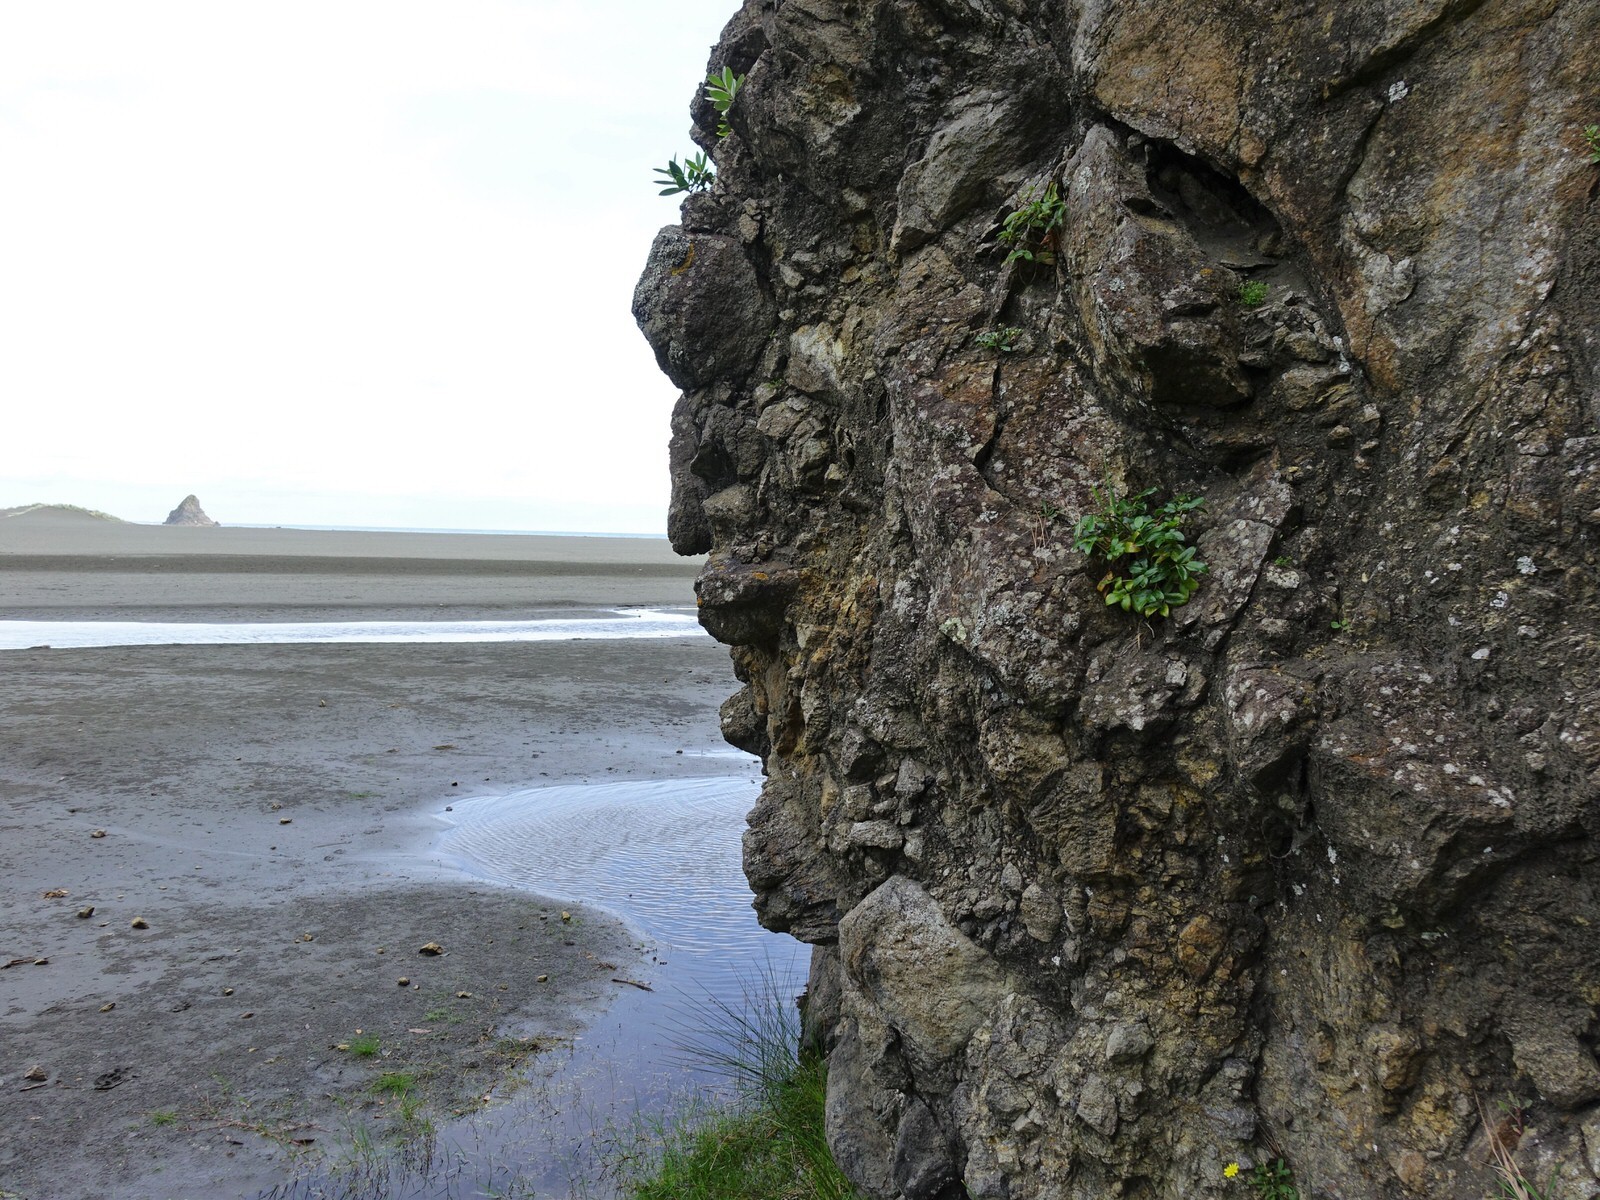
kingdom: Plantae
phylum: Tracheophyta
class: Magnoliopsida
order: Apiales
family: Apiaceae
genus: Scandia
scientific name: Scandia rosifolia
